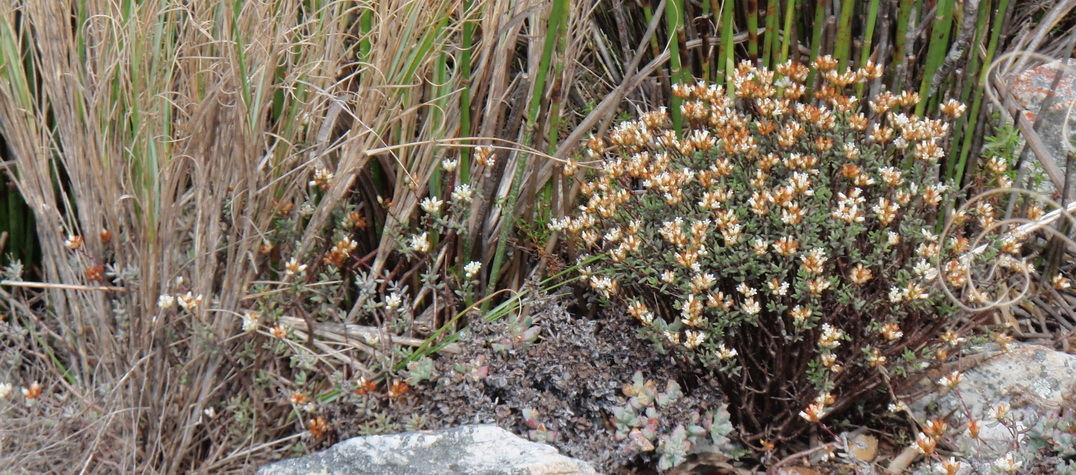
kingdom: Plantae
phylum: Tracheophyta
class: Magnoliopsida
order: Saxifragales
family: Crassulaceae
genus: Crassula
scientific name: Crassula biplanata
